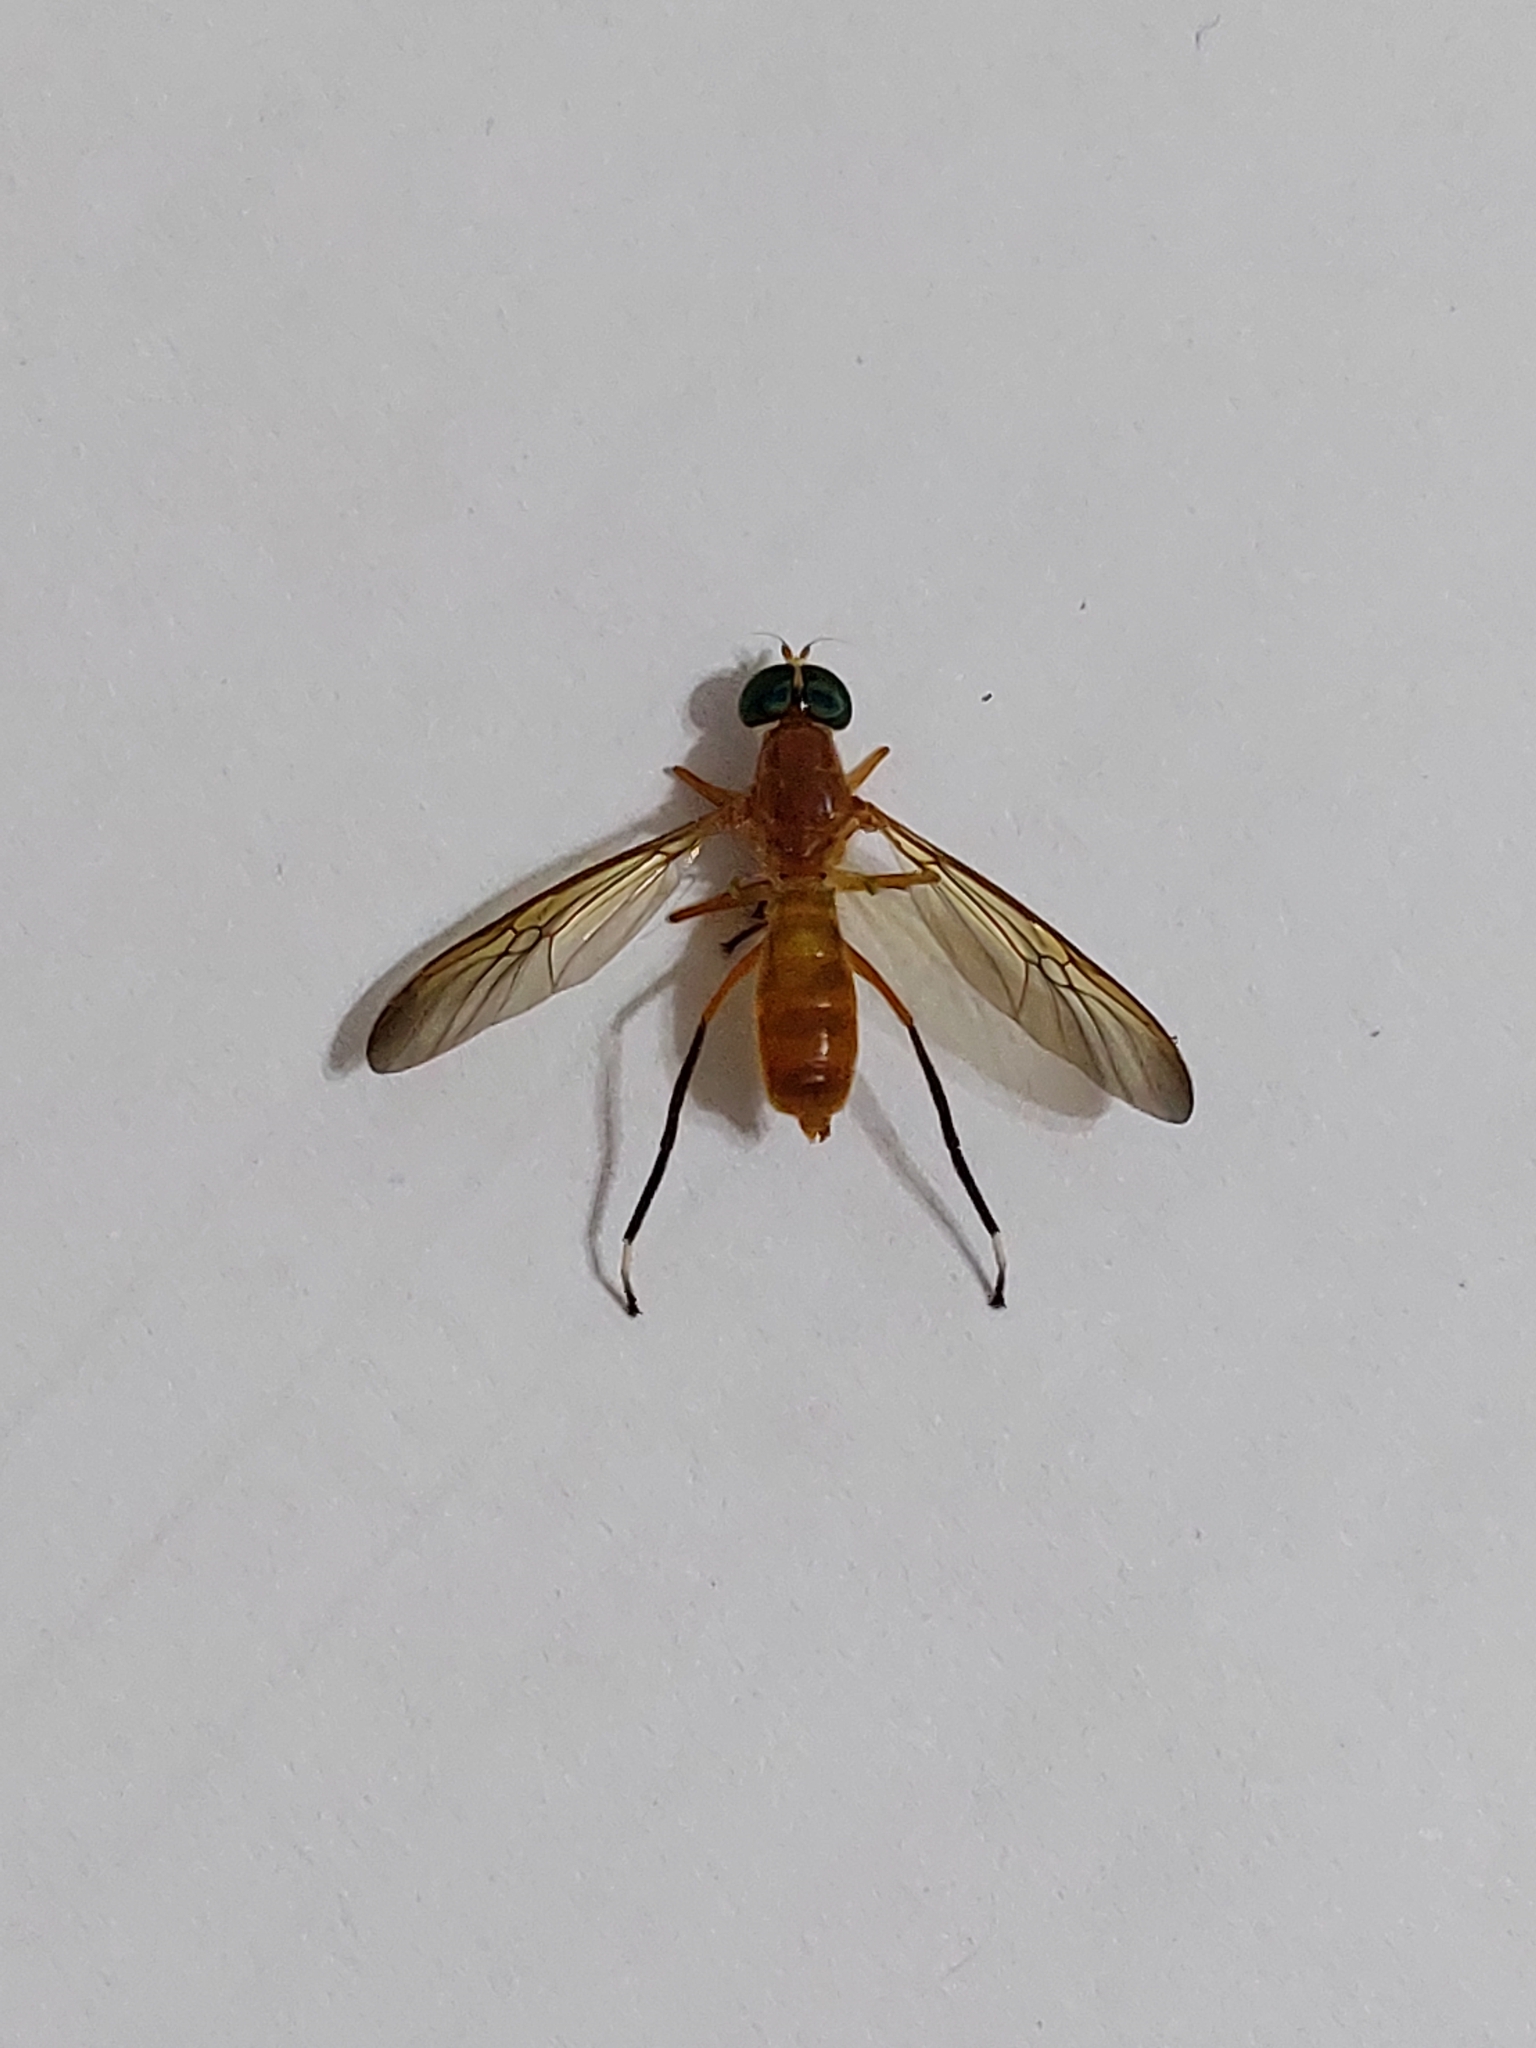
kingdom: Animalia
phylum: Arthropoda
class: Insecta
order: Diptera
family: Stratiomyidae
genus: Ptecticus
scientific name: Ptecticus testaceus
